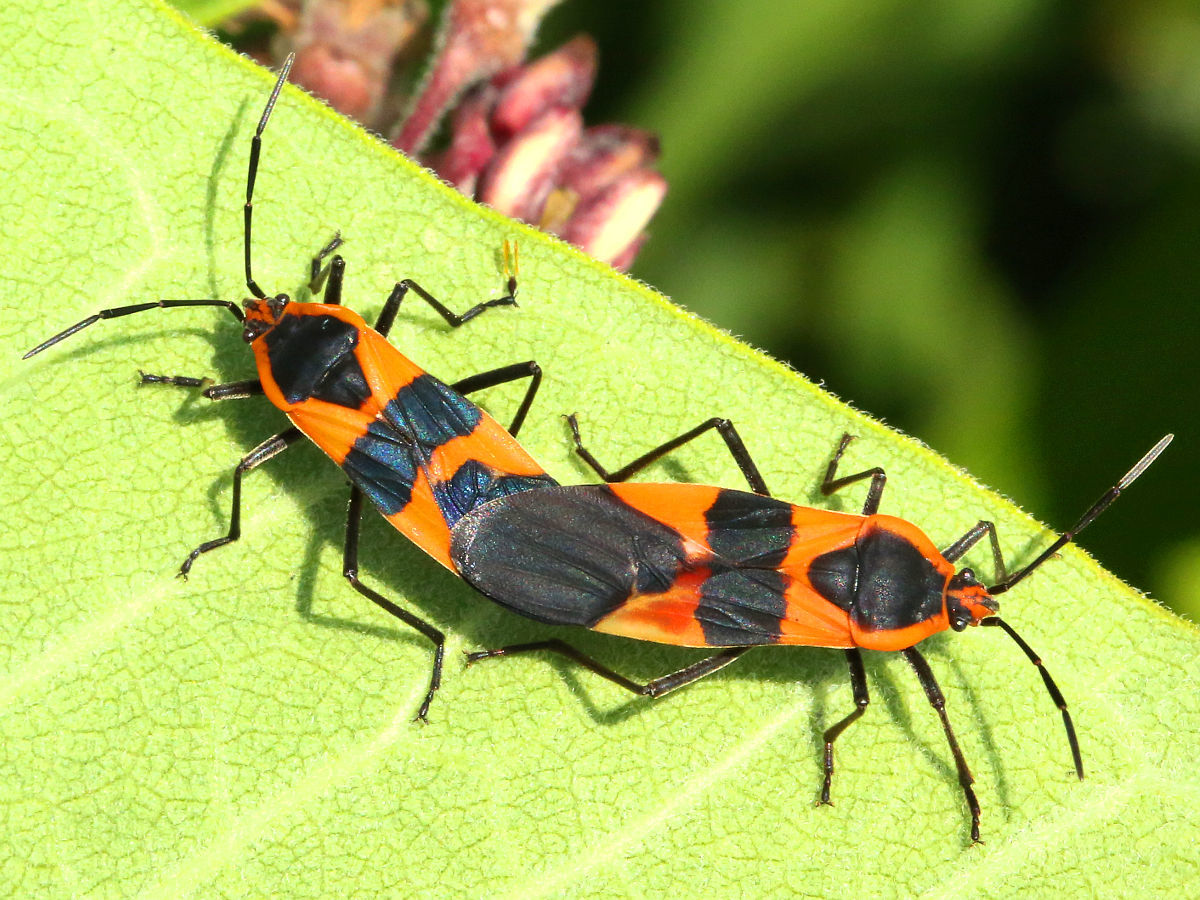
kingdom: Animalia
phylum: Arthropoda
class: Insecta
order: Hemiptera
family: Lygaeidae
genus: Oncopeltus
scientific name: Oncopeltus fasciatus
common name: Large milkweed bug
